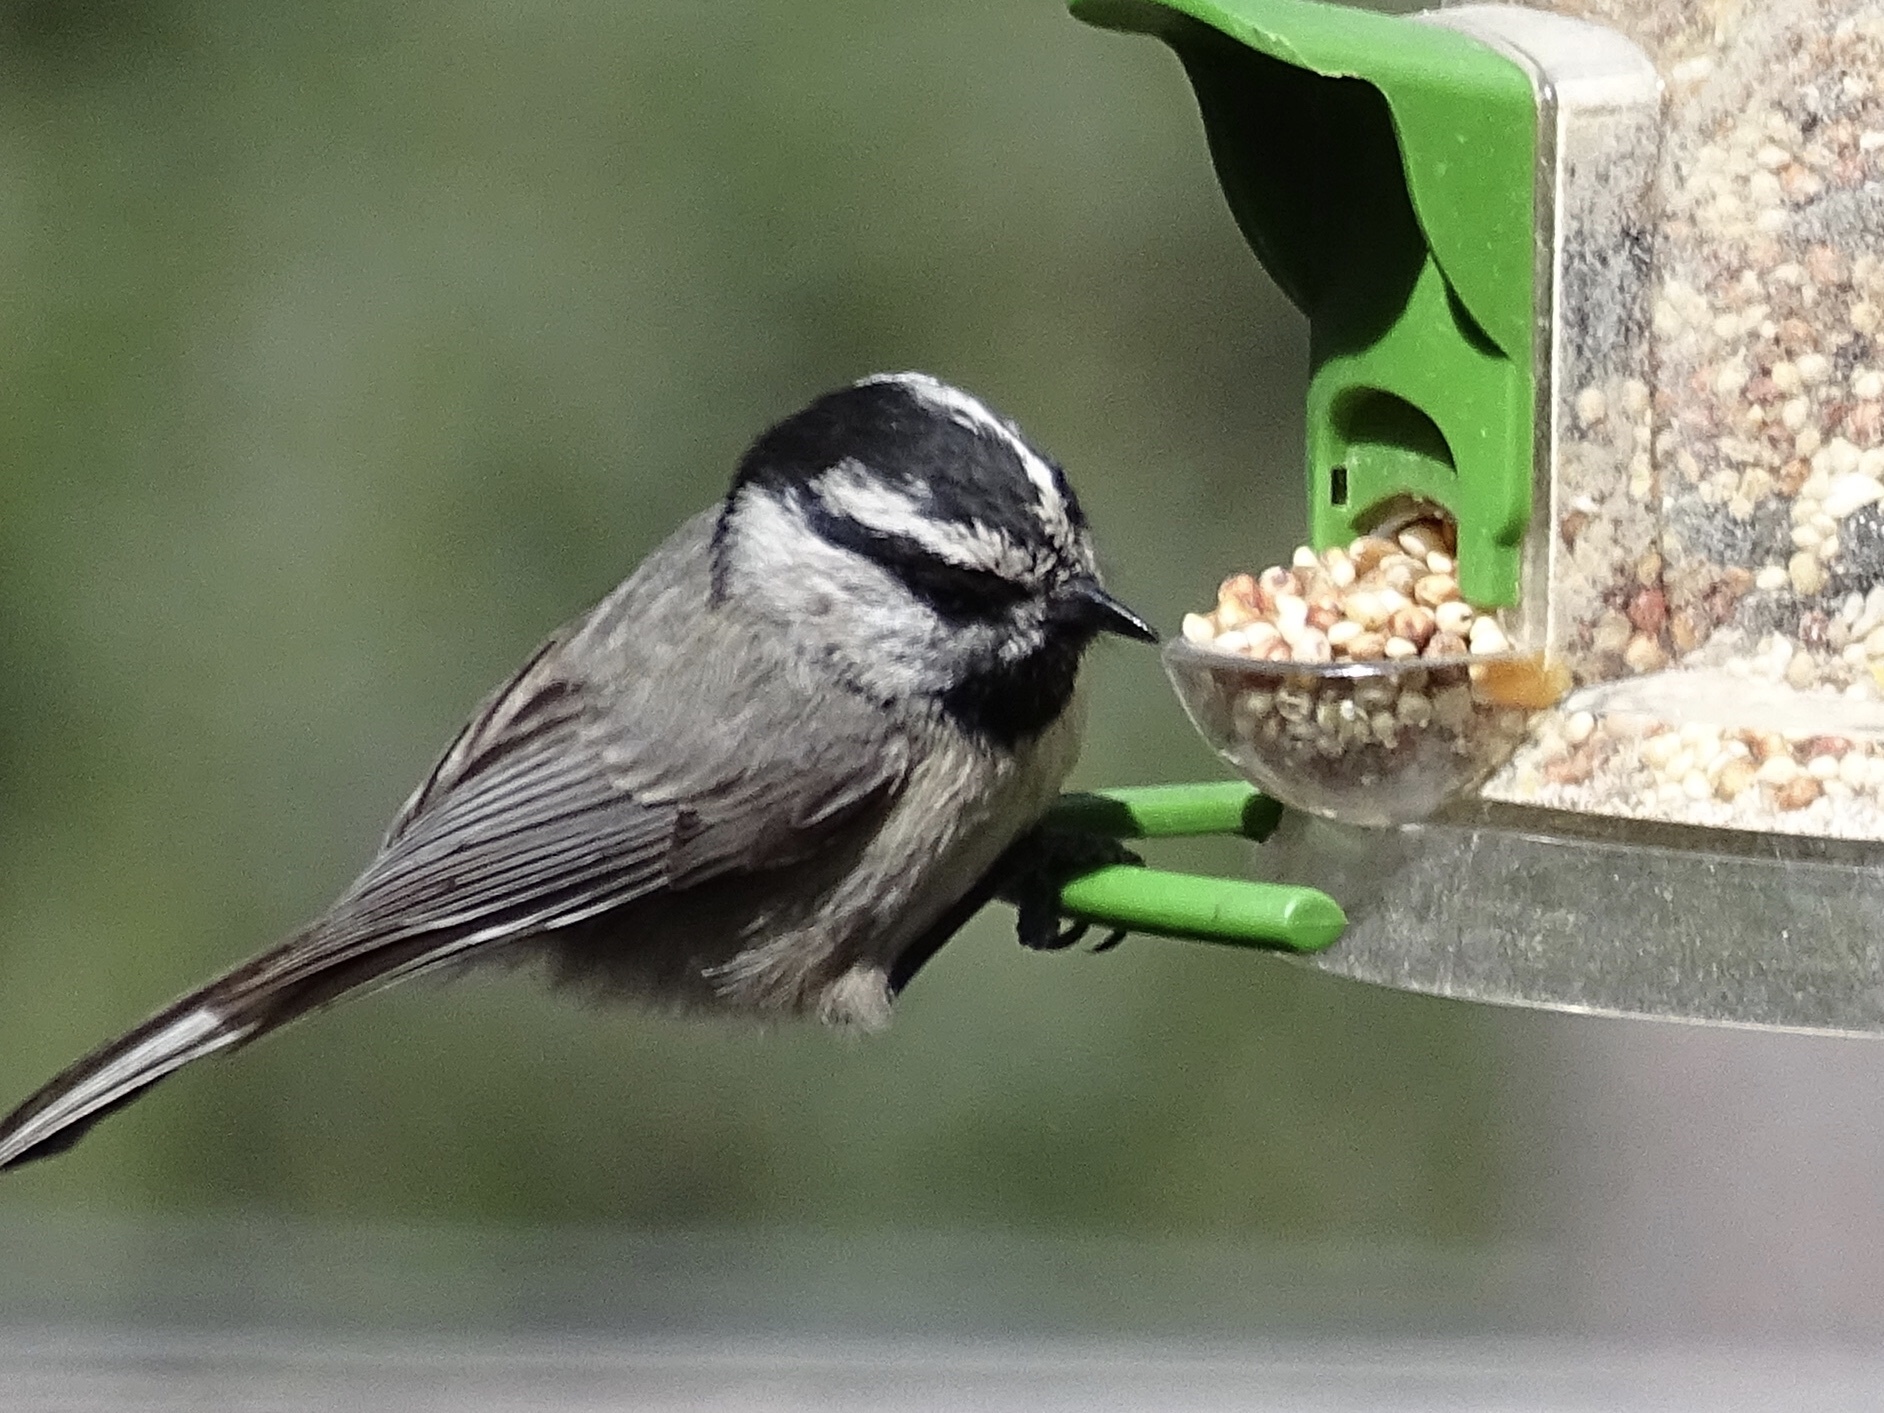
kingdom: Animalia
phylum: Chordata
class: Aves
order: Passeriformes
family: Paridae
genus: Poecile
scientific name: Poecile gambeli
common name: Mountain chickadee
